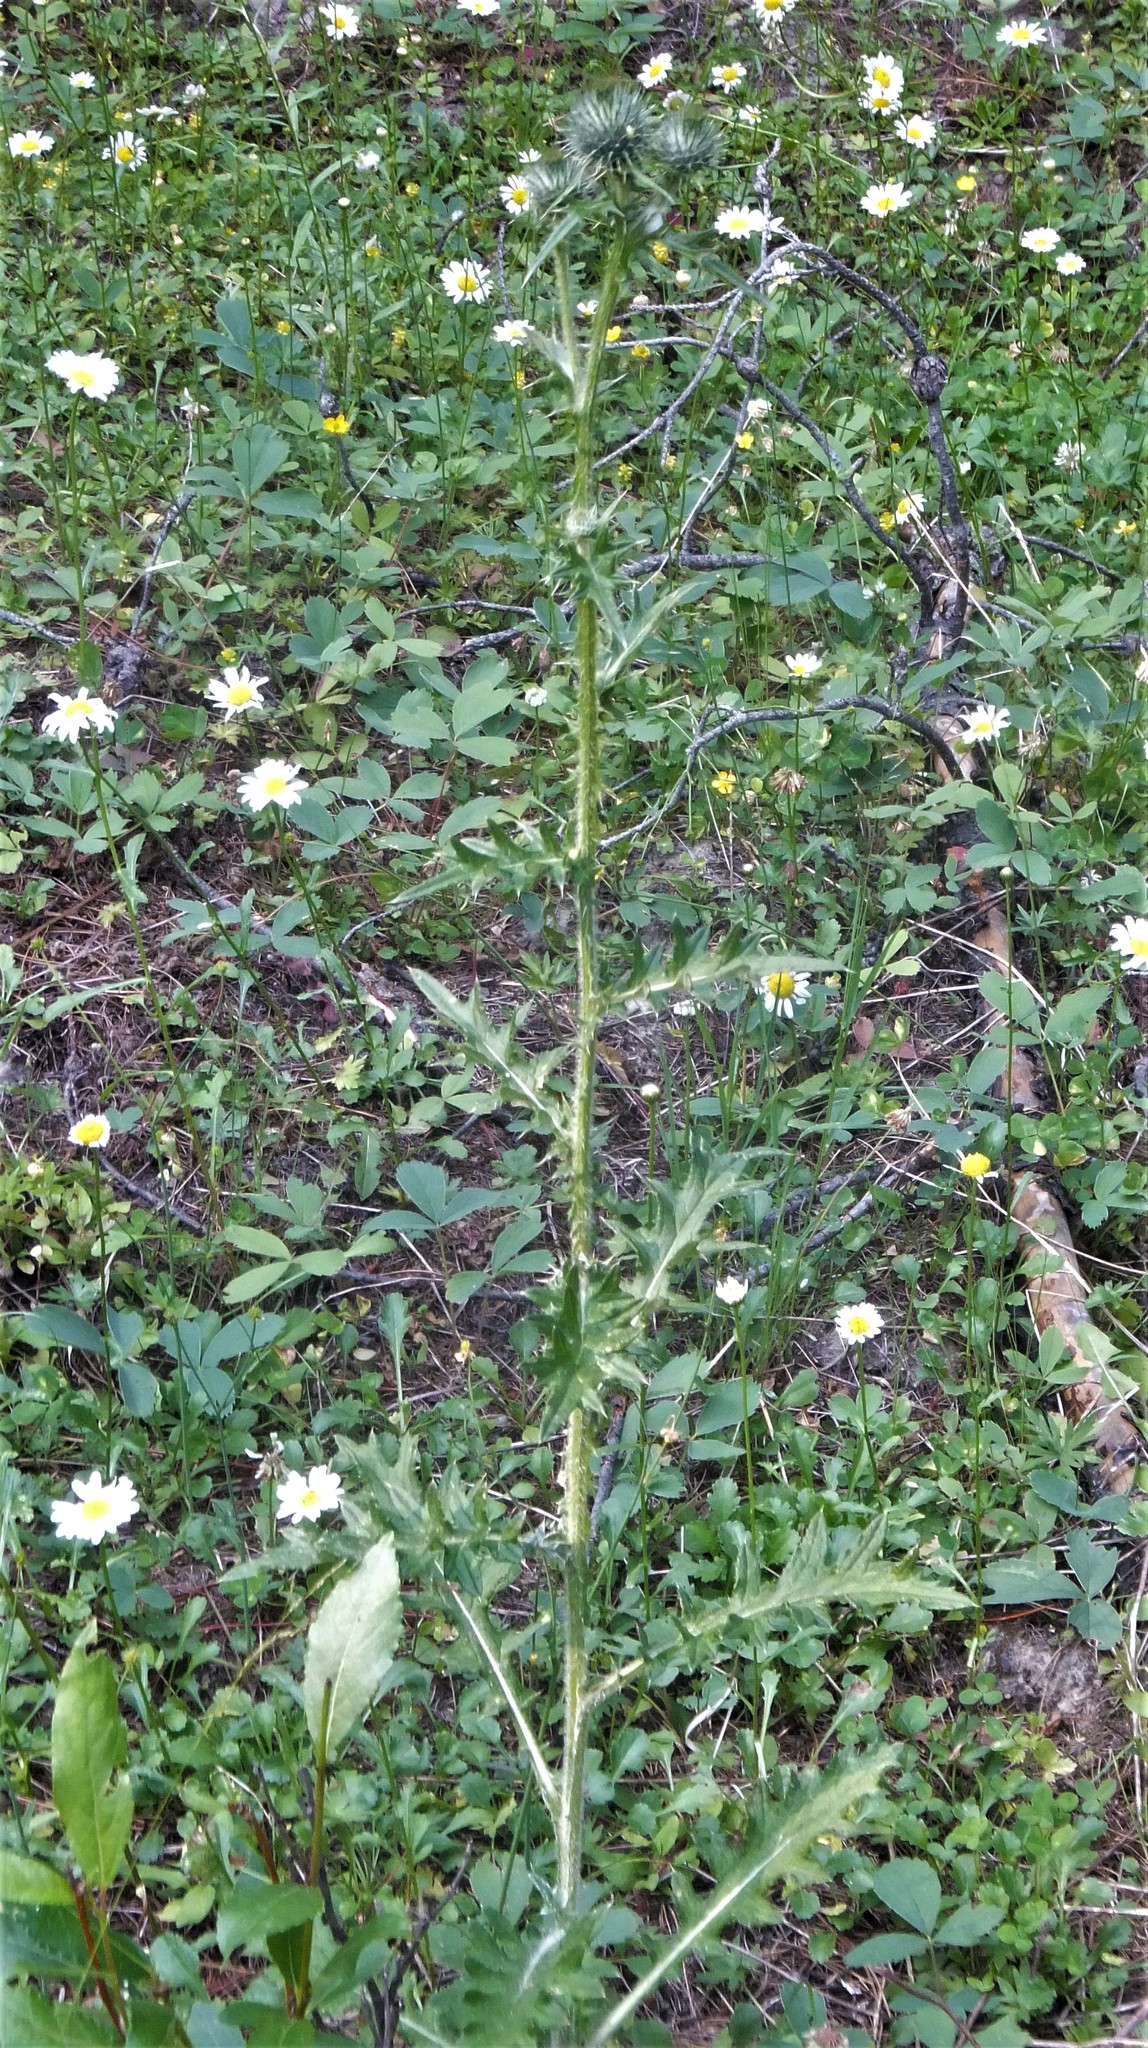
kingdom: Plantae
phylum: Tracheophyta
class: Magnoliopsida
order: Asterales
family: Asteraceae
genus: Cirsium
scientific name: Cirsium vulgare
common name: Bull thistle
